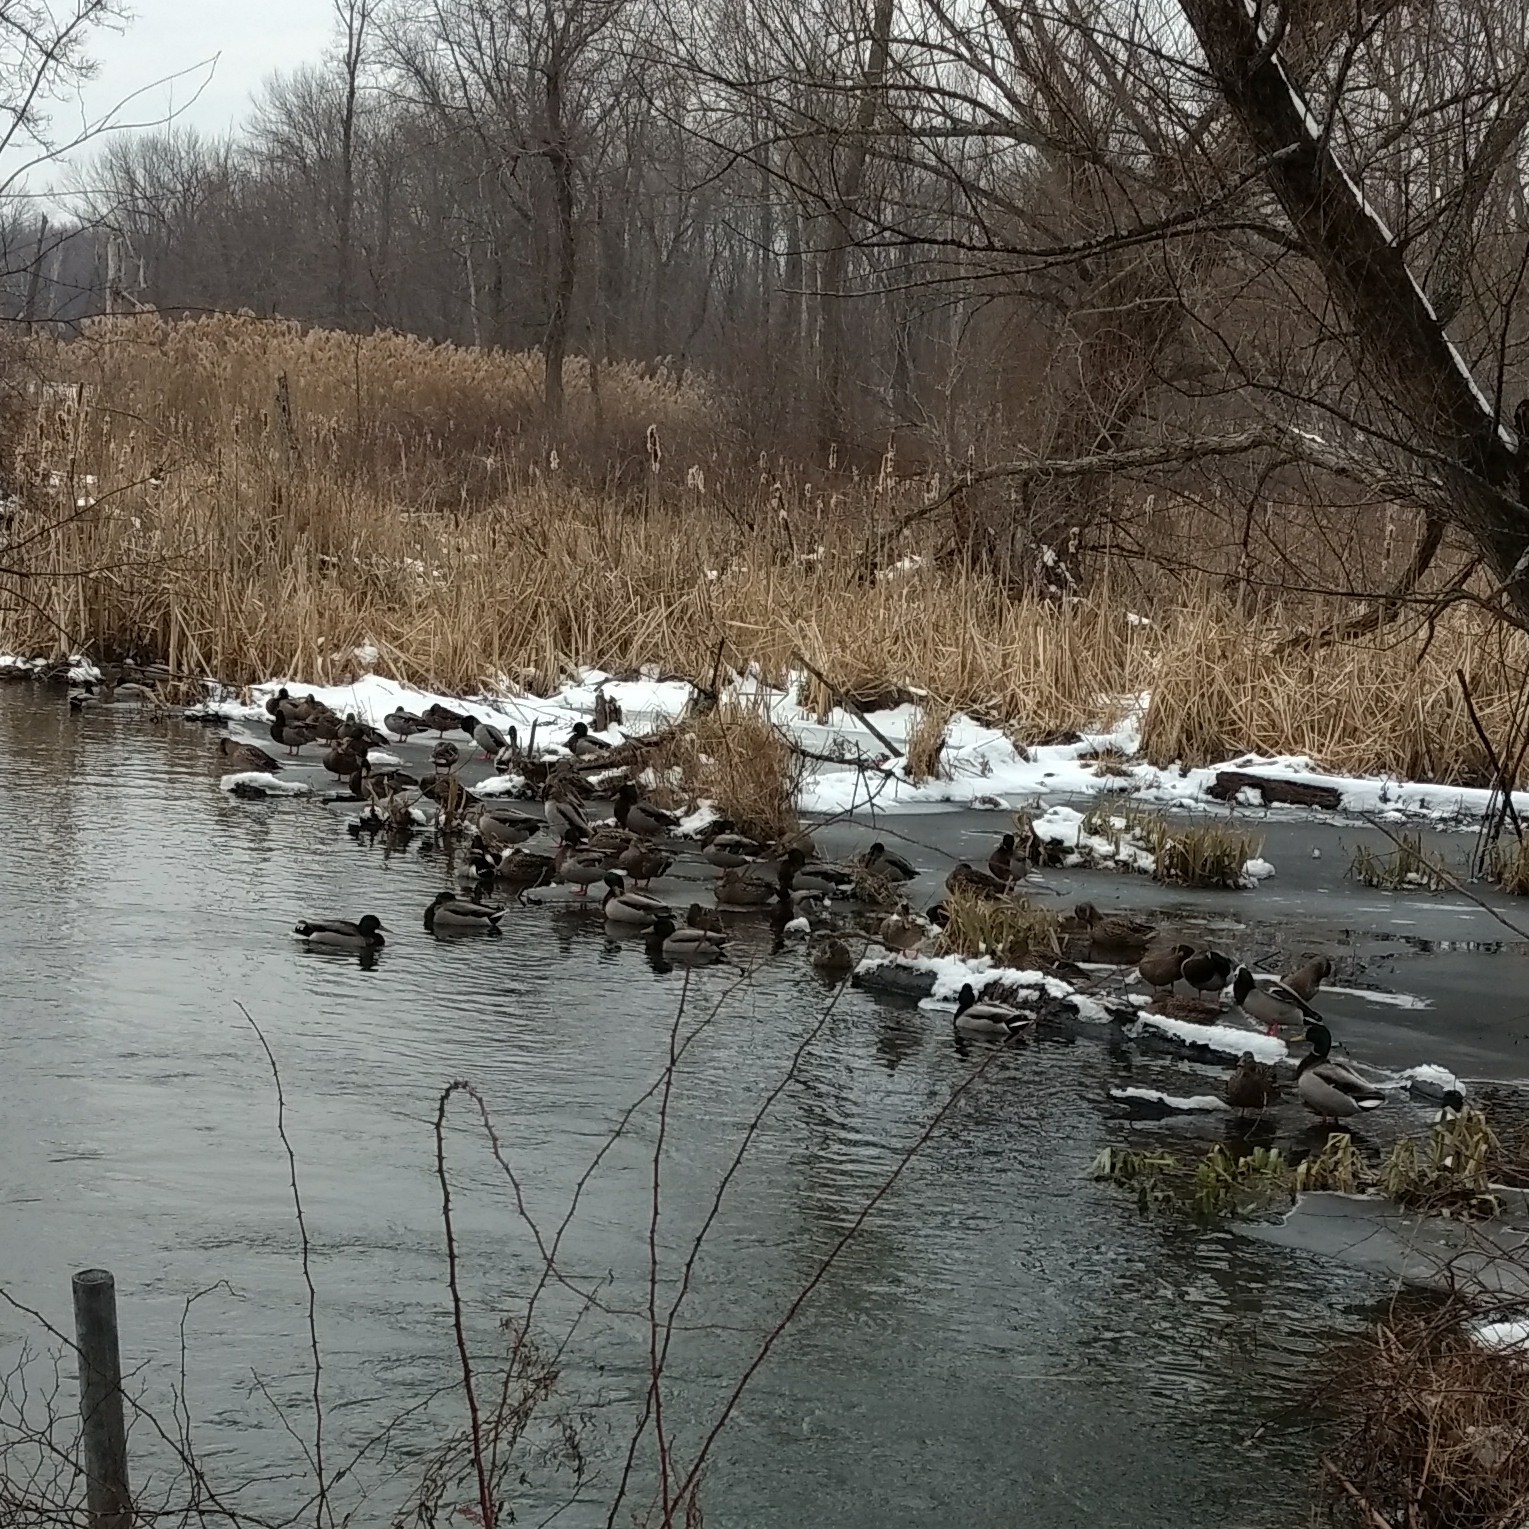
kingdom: Animalia
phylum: Chordata
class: Aves
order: Anseriformes
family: Anatidae
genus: Anas
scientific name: Anas platyrhynchos
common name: Mallard
